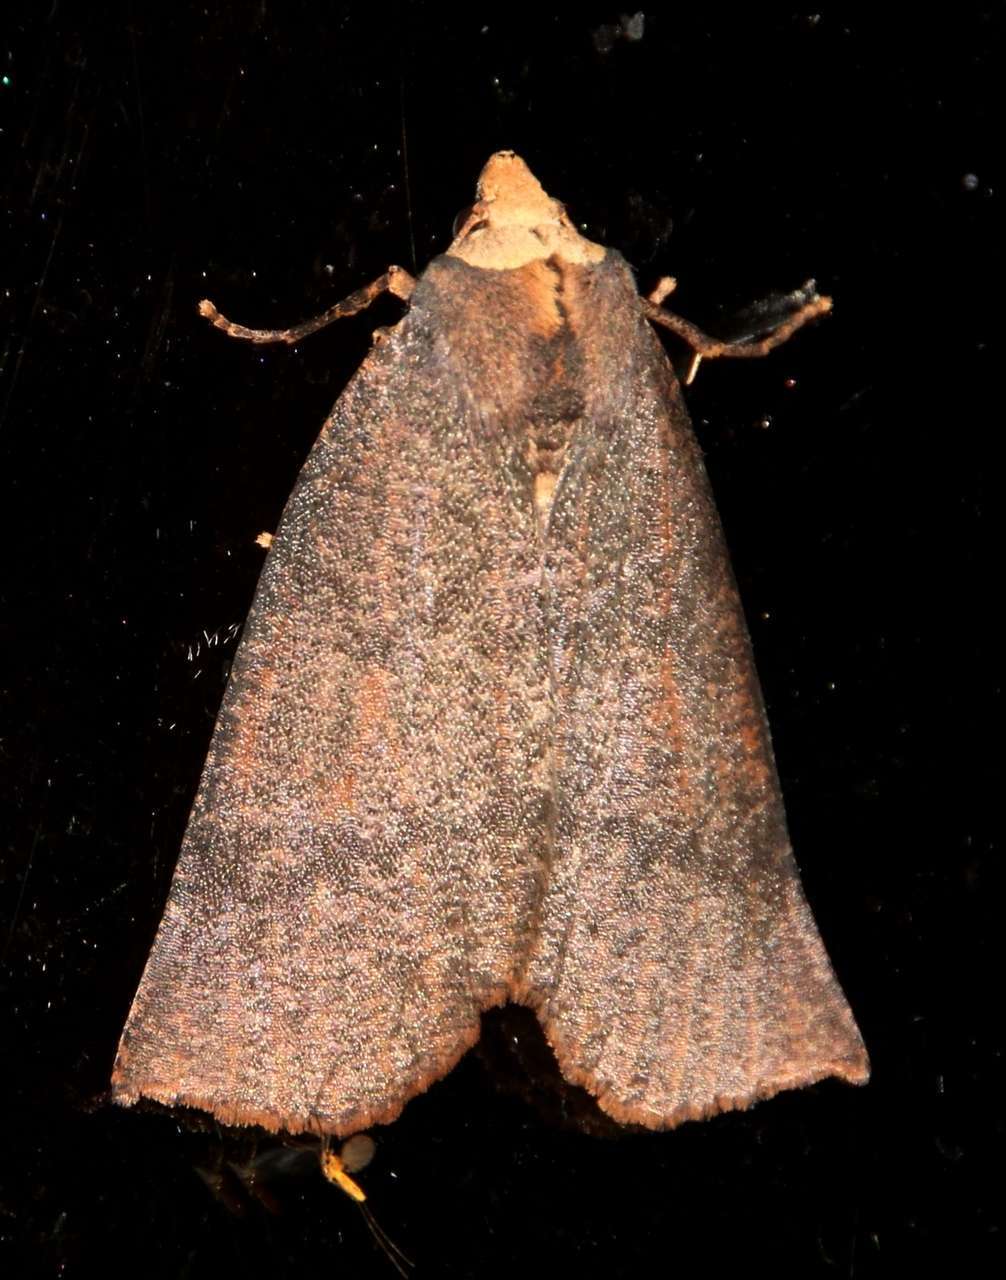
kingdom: Animalia
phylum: Arthropoda
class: Insecta
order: Lepidoptera
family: Geometridae
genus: Fisera
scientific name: Fisera eribola
